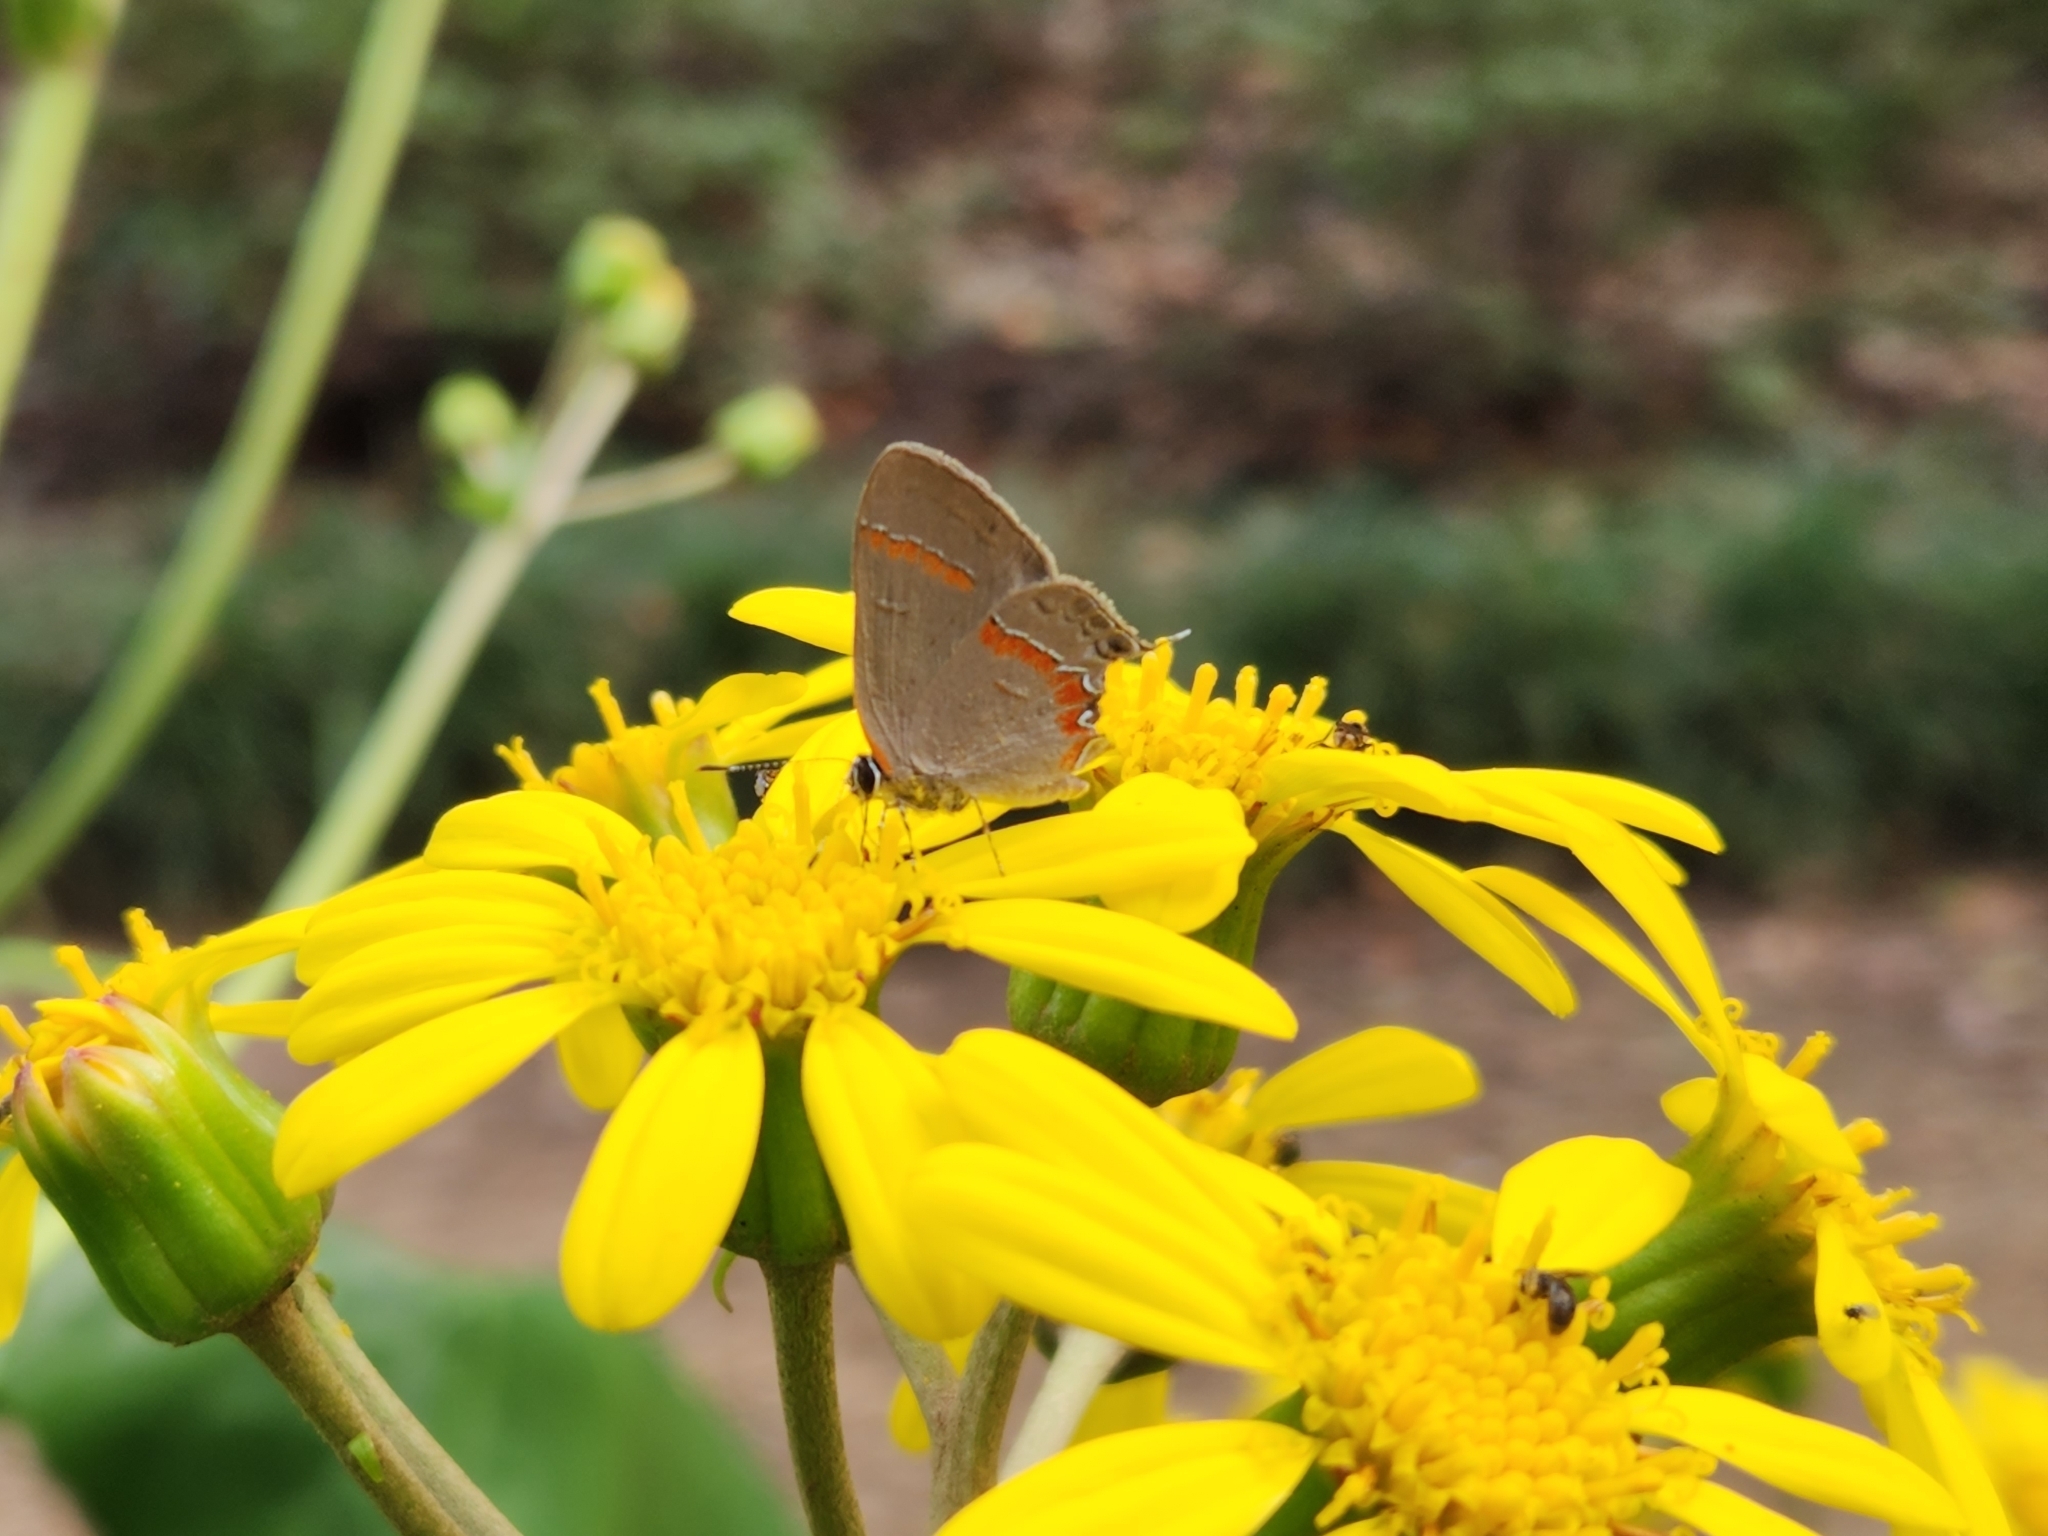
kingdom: Animalia
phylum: Arthropoda
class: Insecta
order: Lepidoptera
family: Lycaenidae
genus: Calycopis
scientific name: Calycopis cecrops
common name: Red-banded hairstreak
